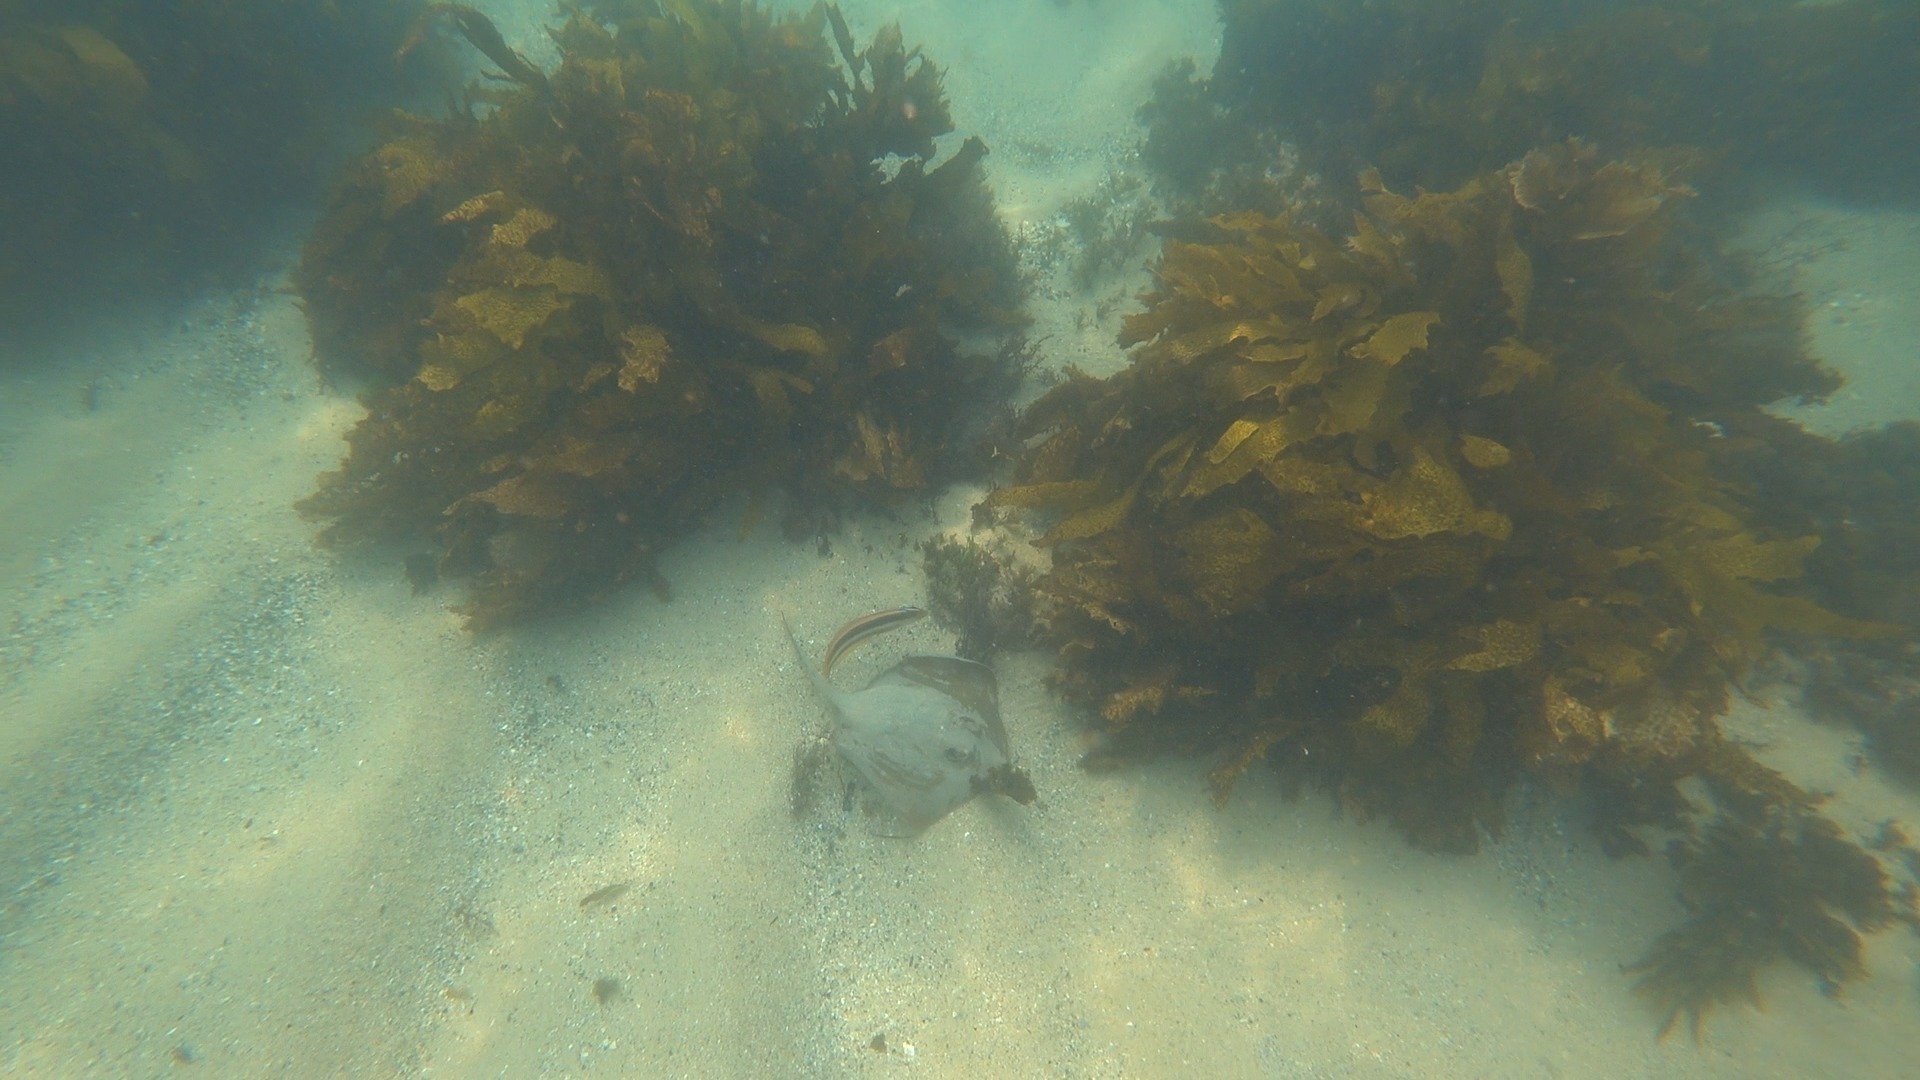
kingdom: Animalia
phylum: Chordata
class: Elasmobranchii
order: Myliobatiformes
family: Urolophidae
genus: Trygonoptera
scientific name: Trygonoptera testacea
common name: Common stingaree
